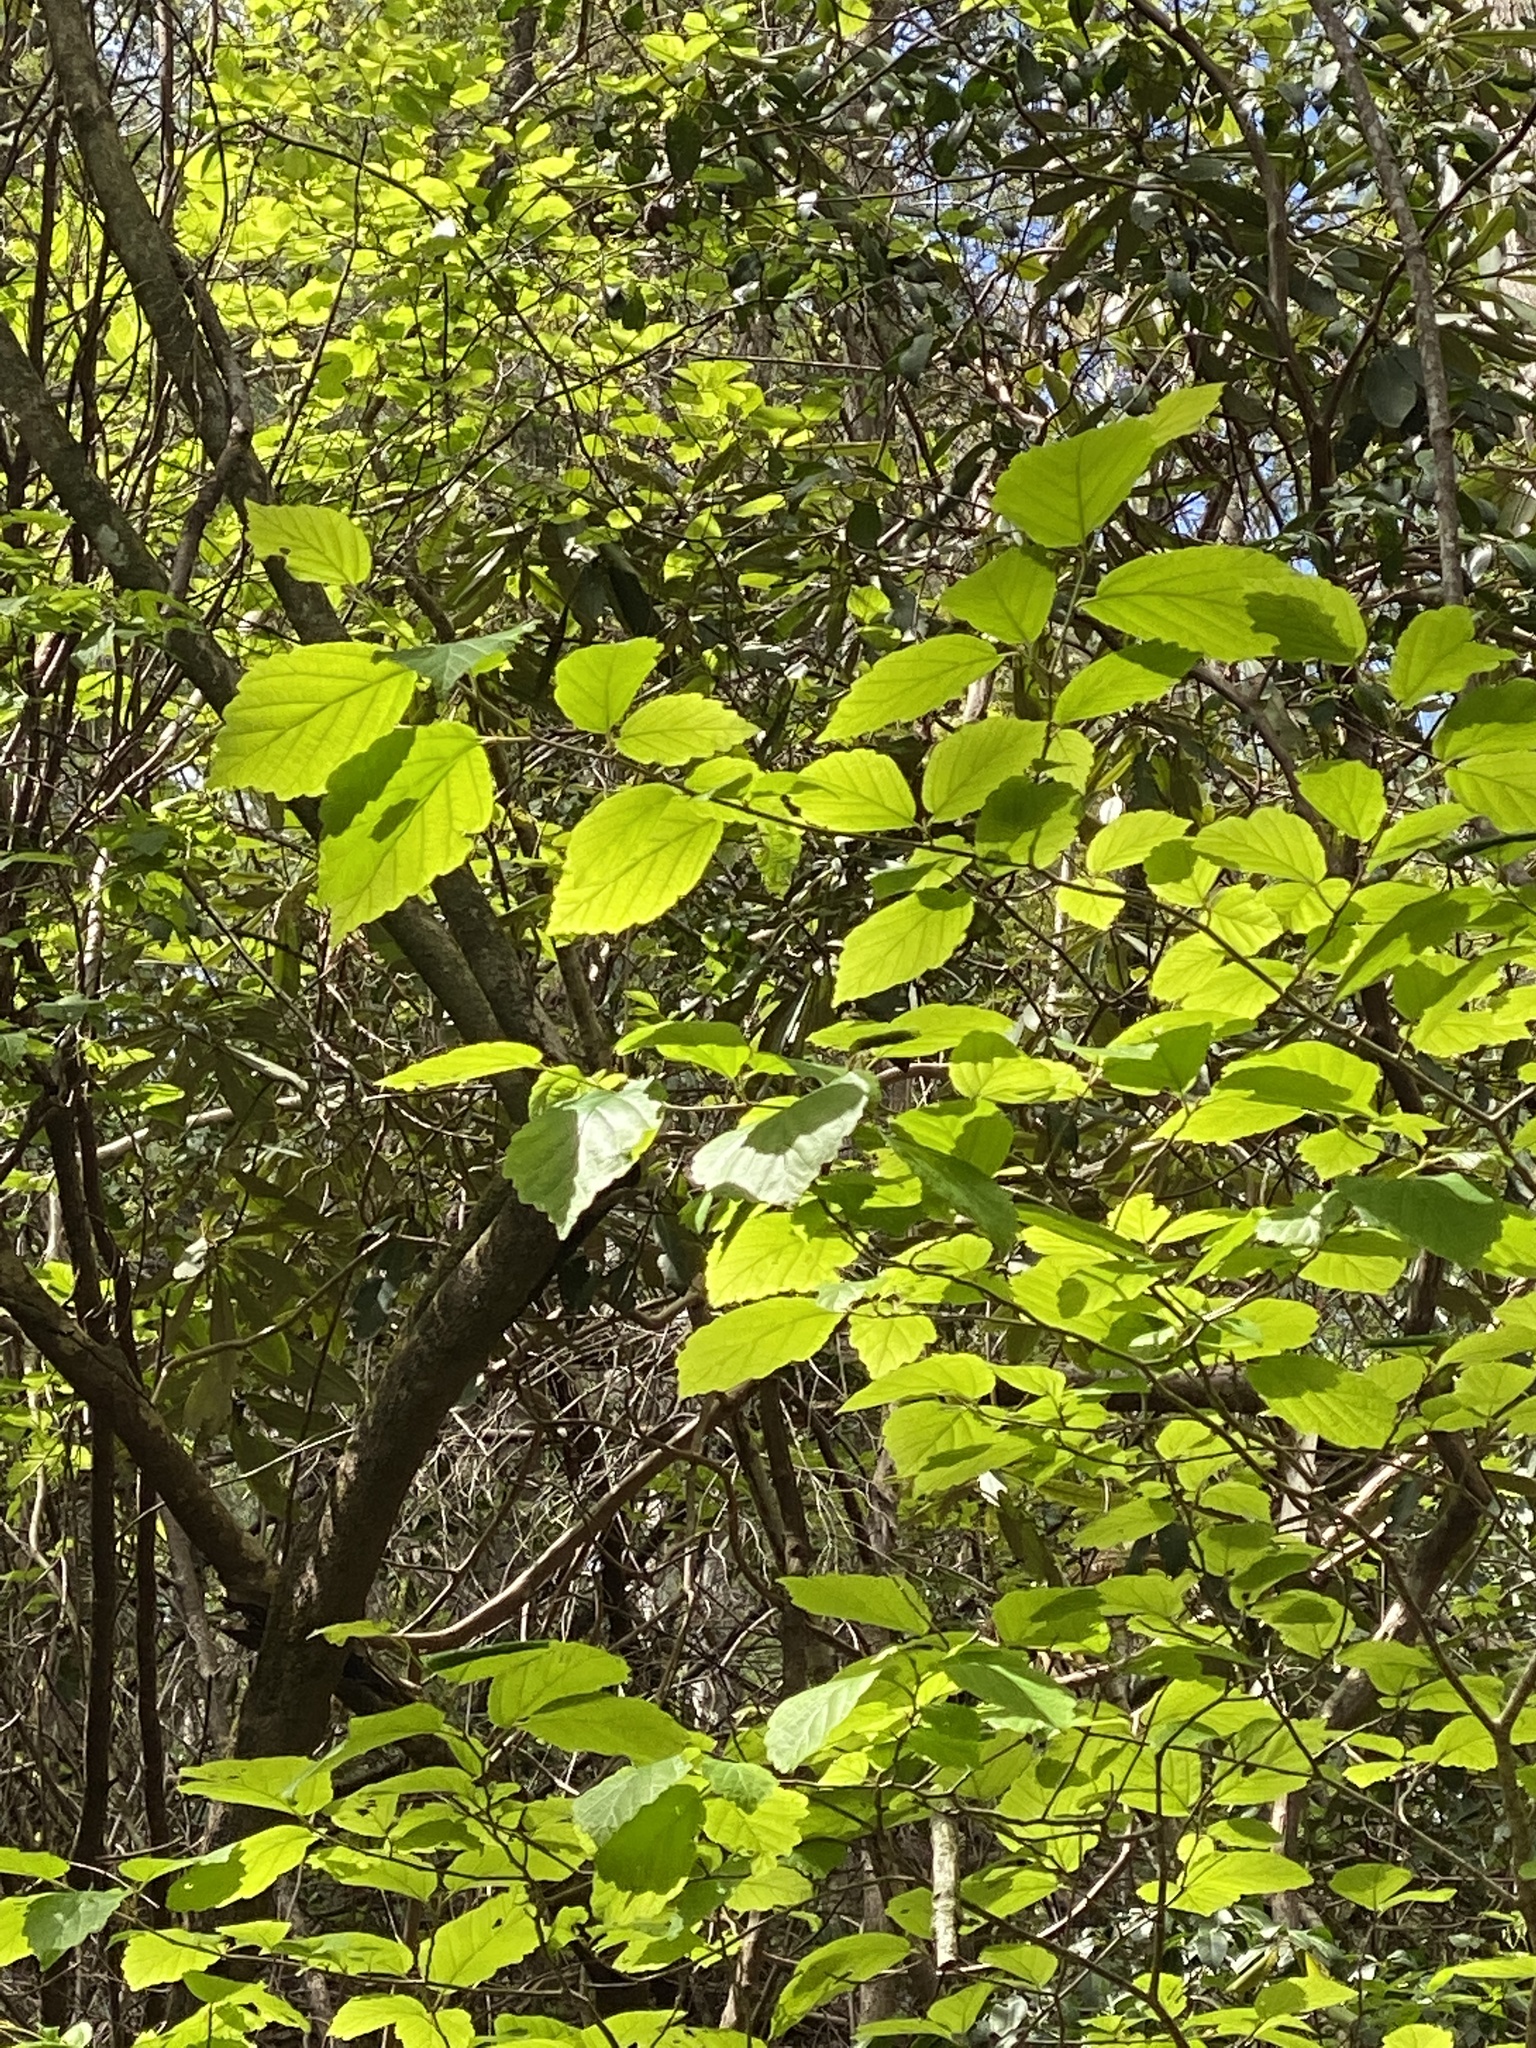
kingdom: Plantae
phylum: Tracheophyta
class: Magnoliopsida
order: Saxifragales
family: Hamamelidaceae
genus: Hamamelis
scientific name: Hamamelis virginiana
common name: Witch-hazel
